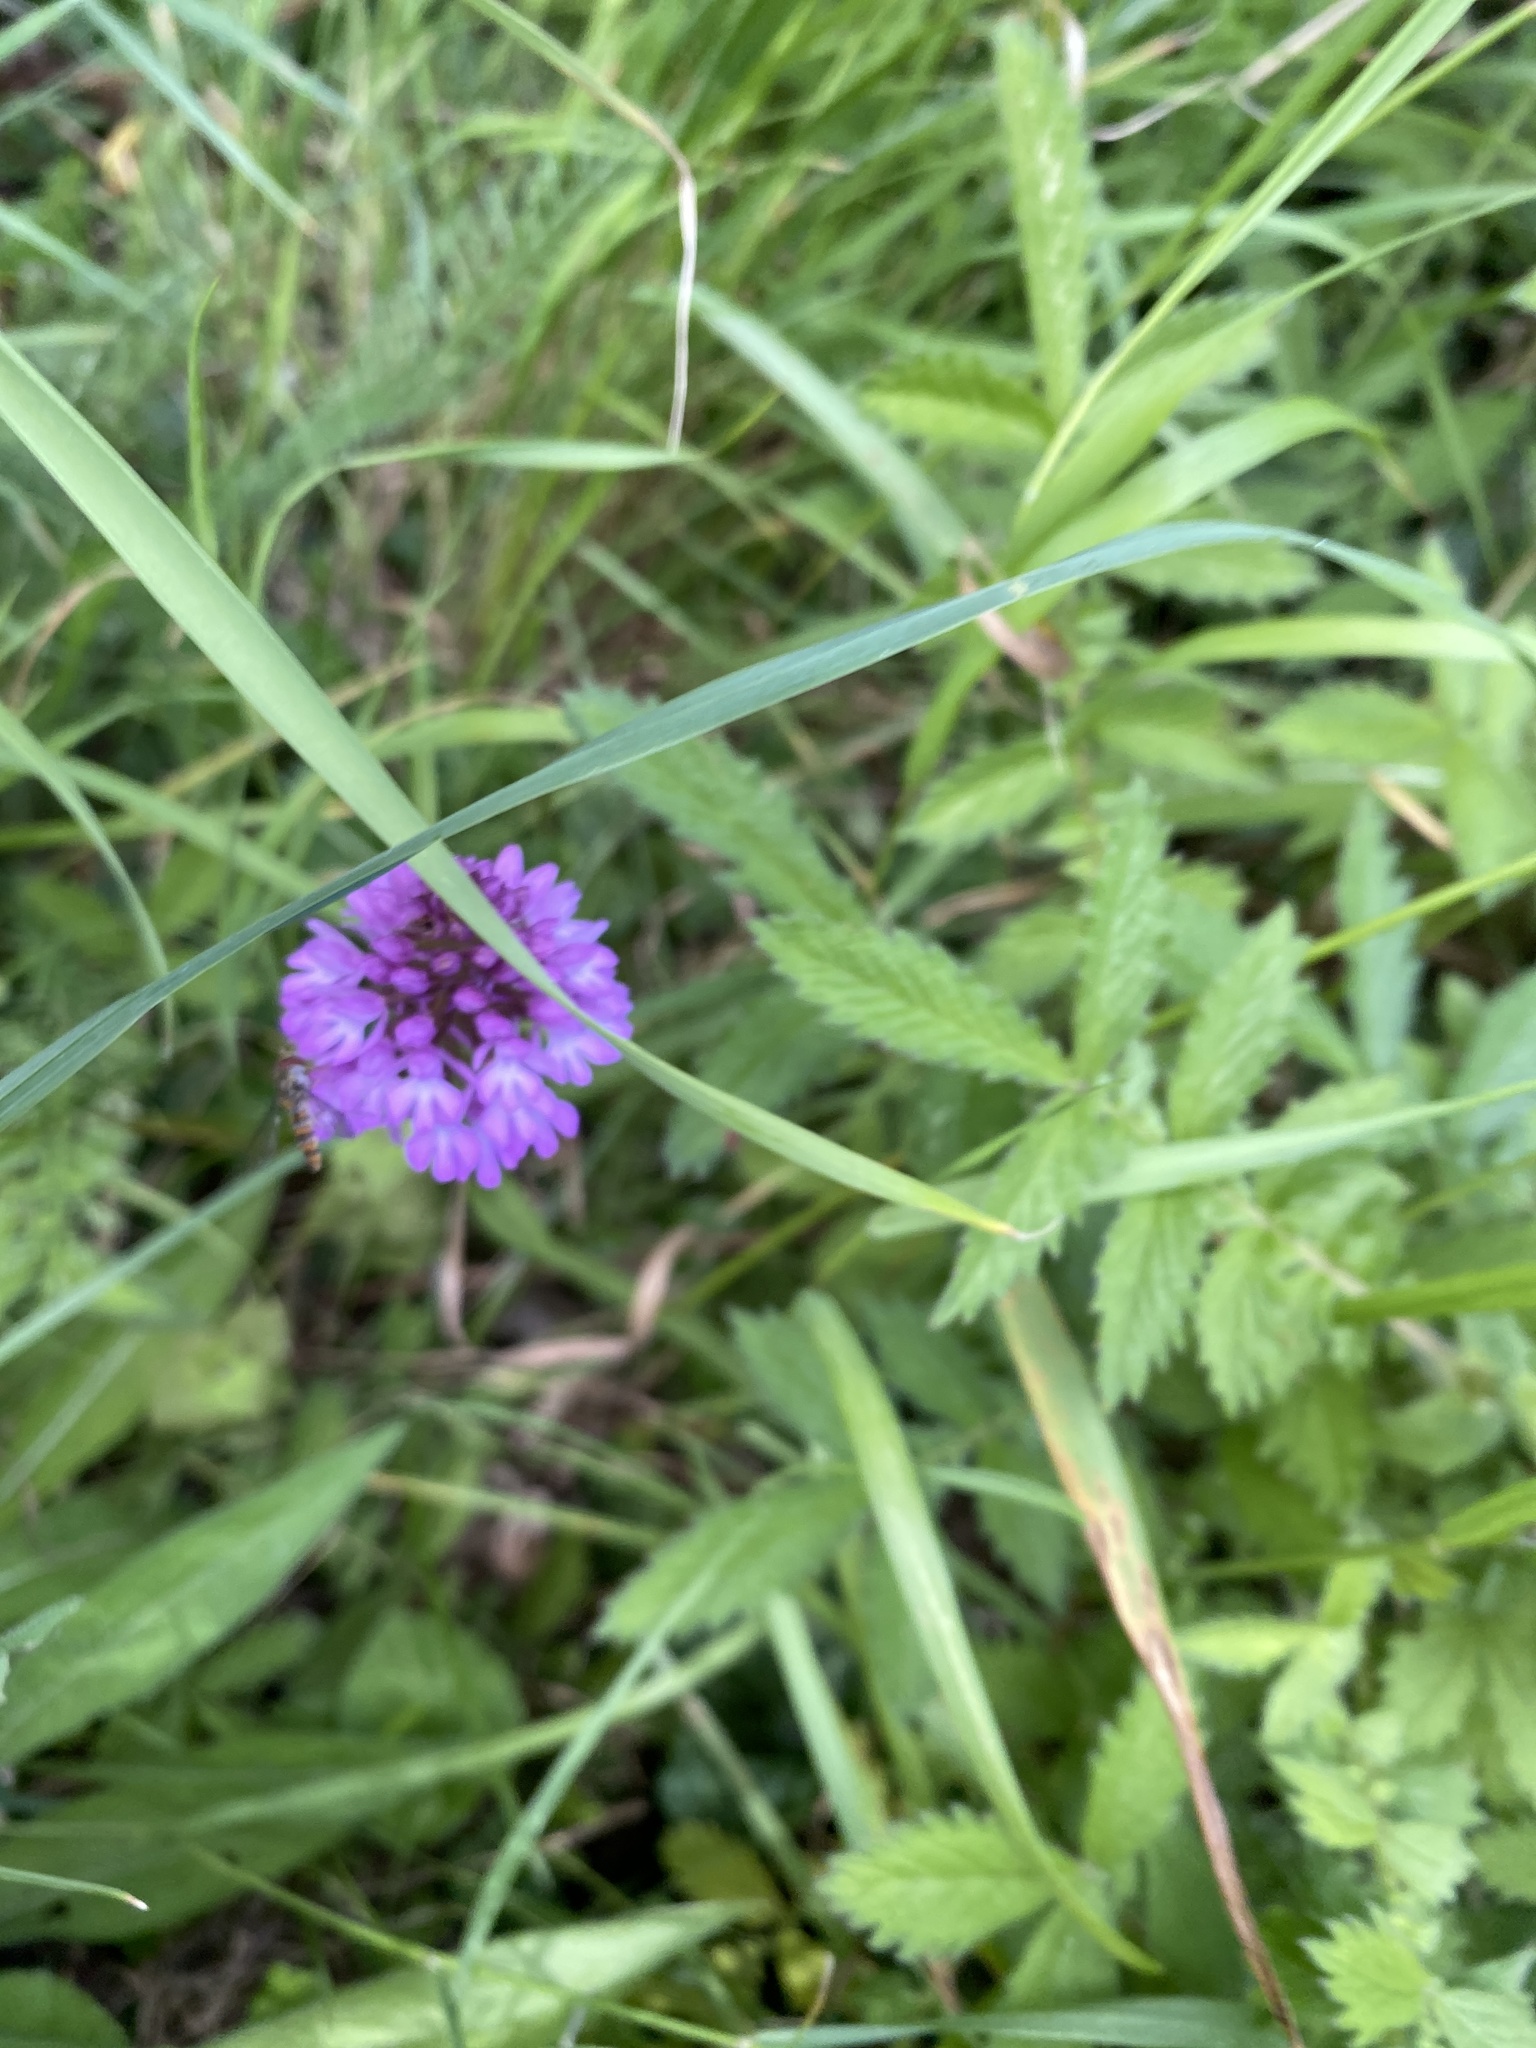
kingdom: Plantae
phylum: Tracheophyta
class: Liliopsida
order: Asparagales
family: Orchidaceae
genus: Anacamptis
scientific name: Anacamptis pyramidalis
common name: Pyramidal orchid
